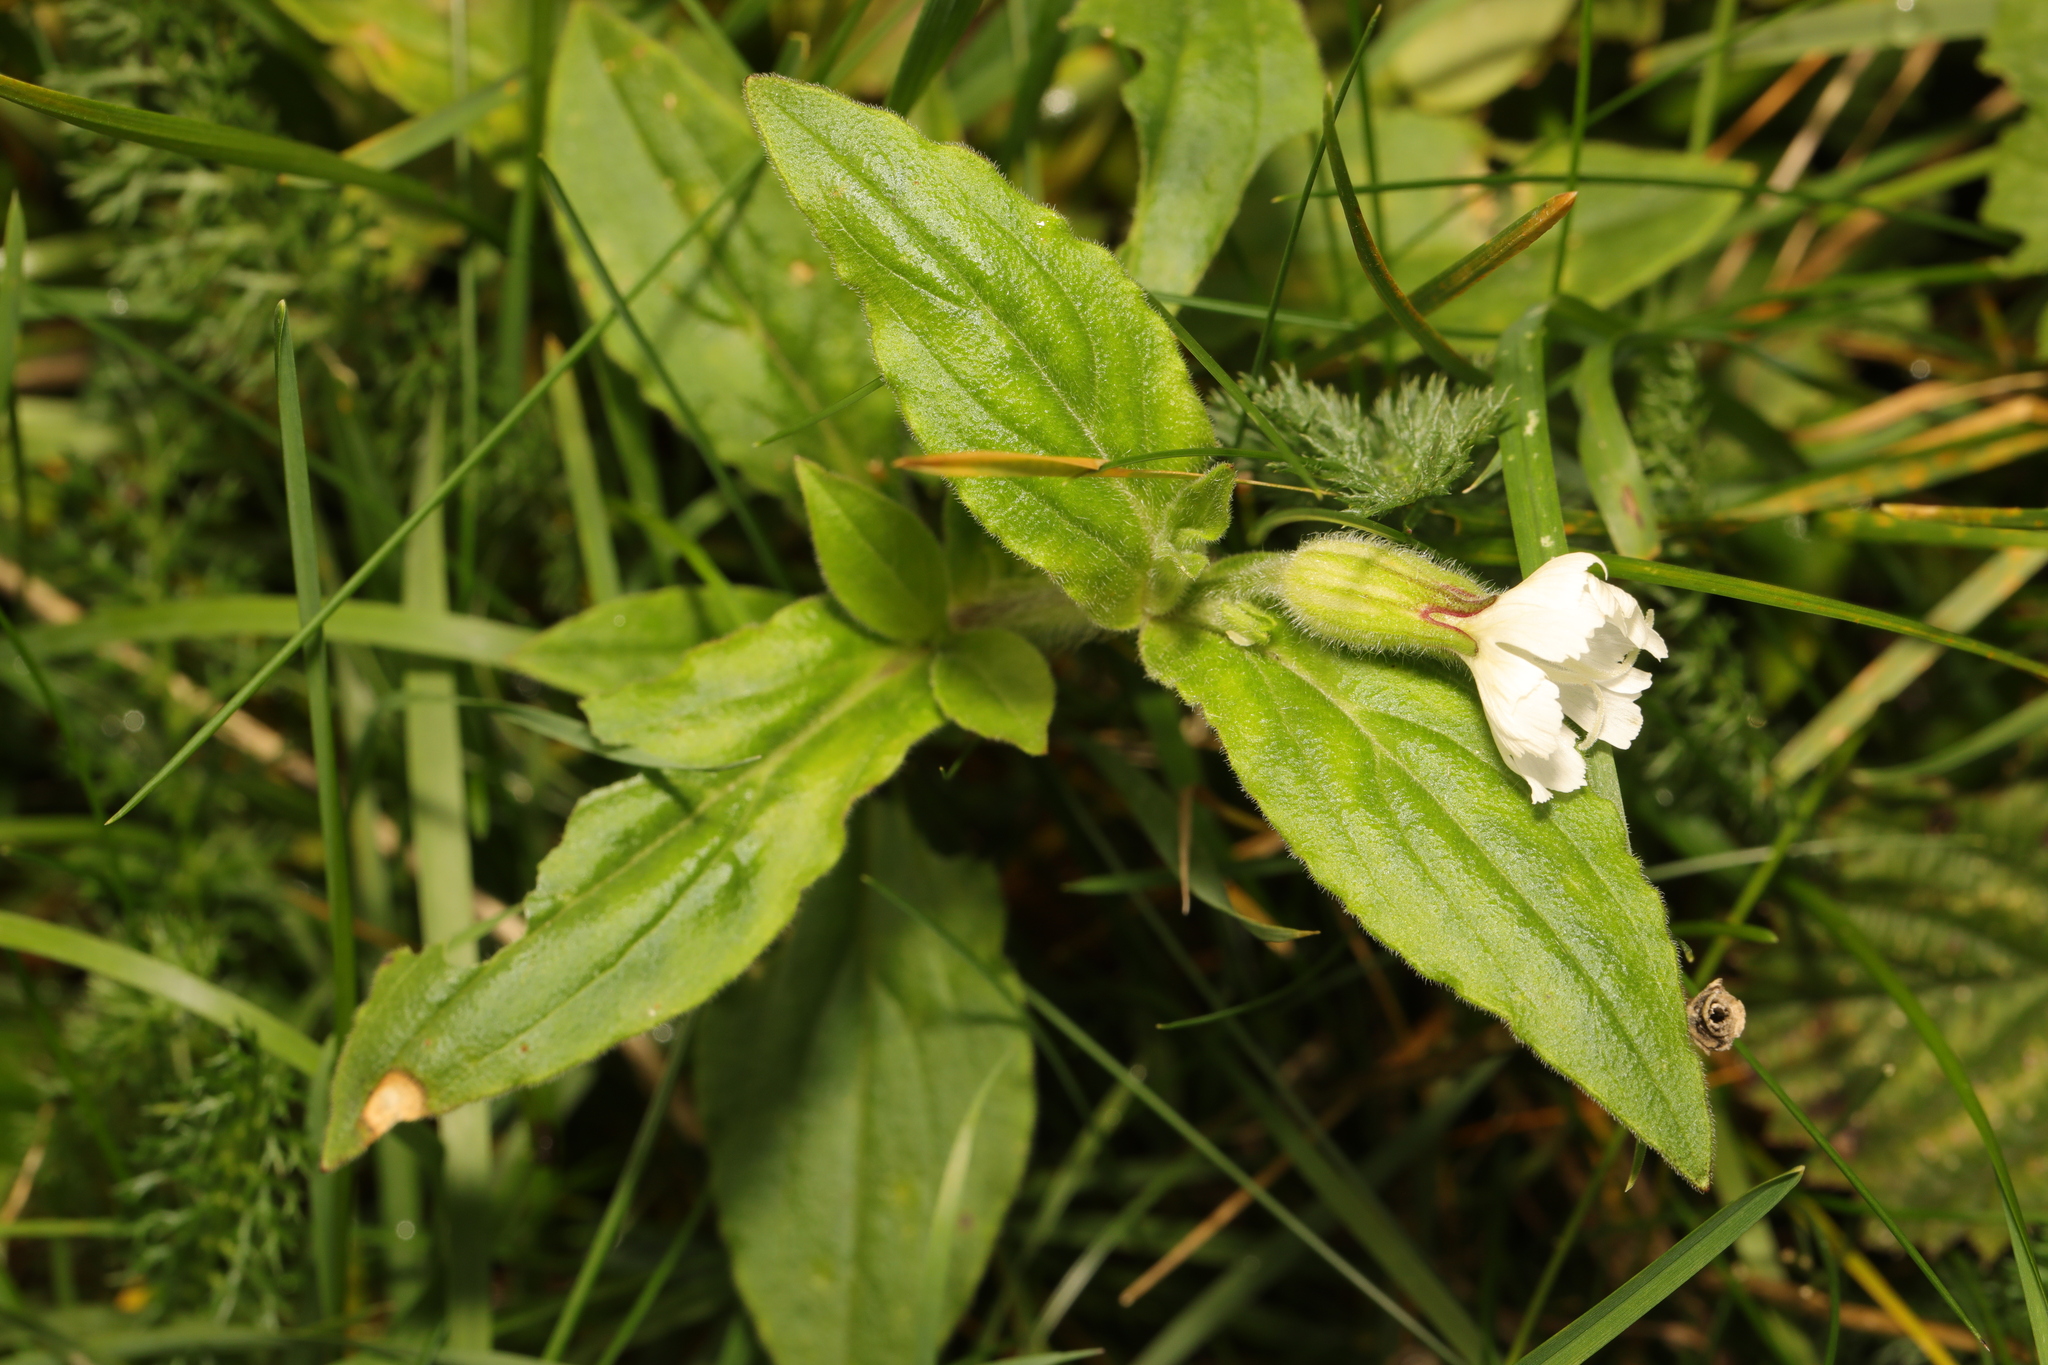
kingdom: Plantae
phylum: Tracheophyta
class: Magnoliopsida
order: Caryophyllales
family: Caryophyllaceae
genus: Silene
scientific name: Silene latifolia
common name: White campion
